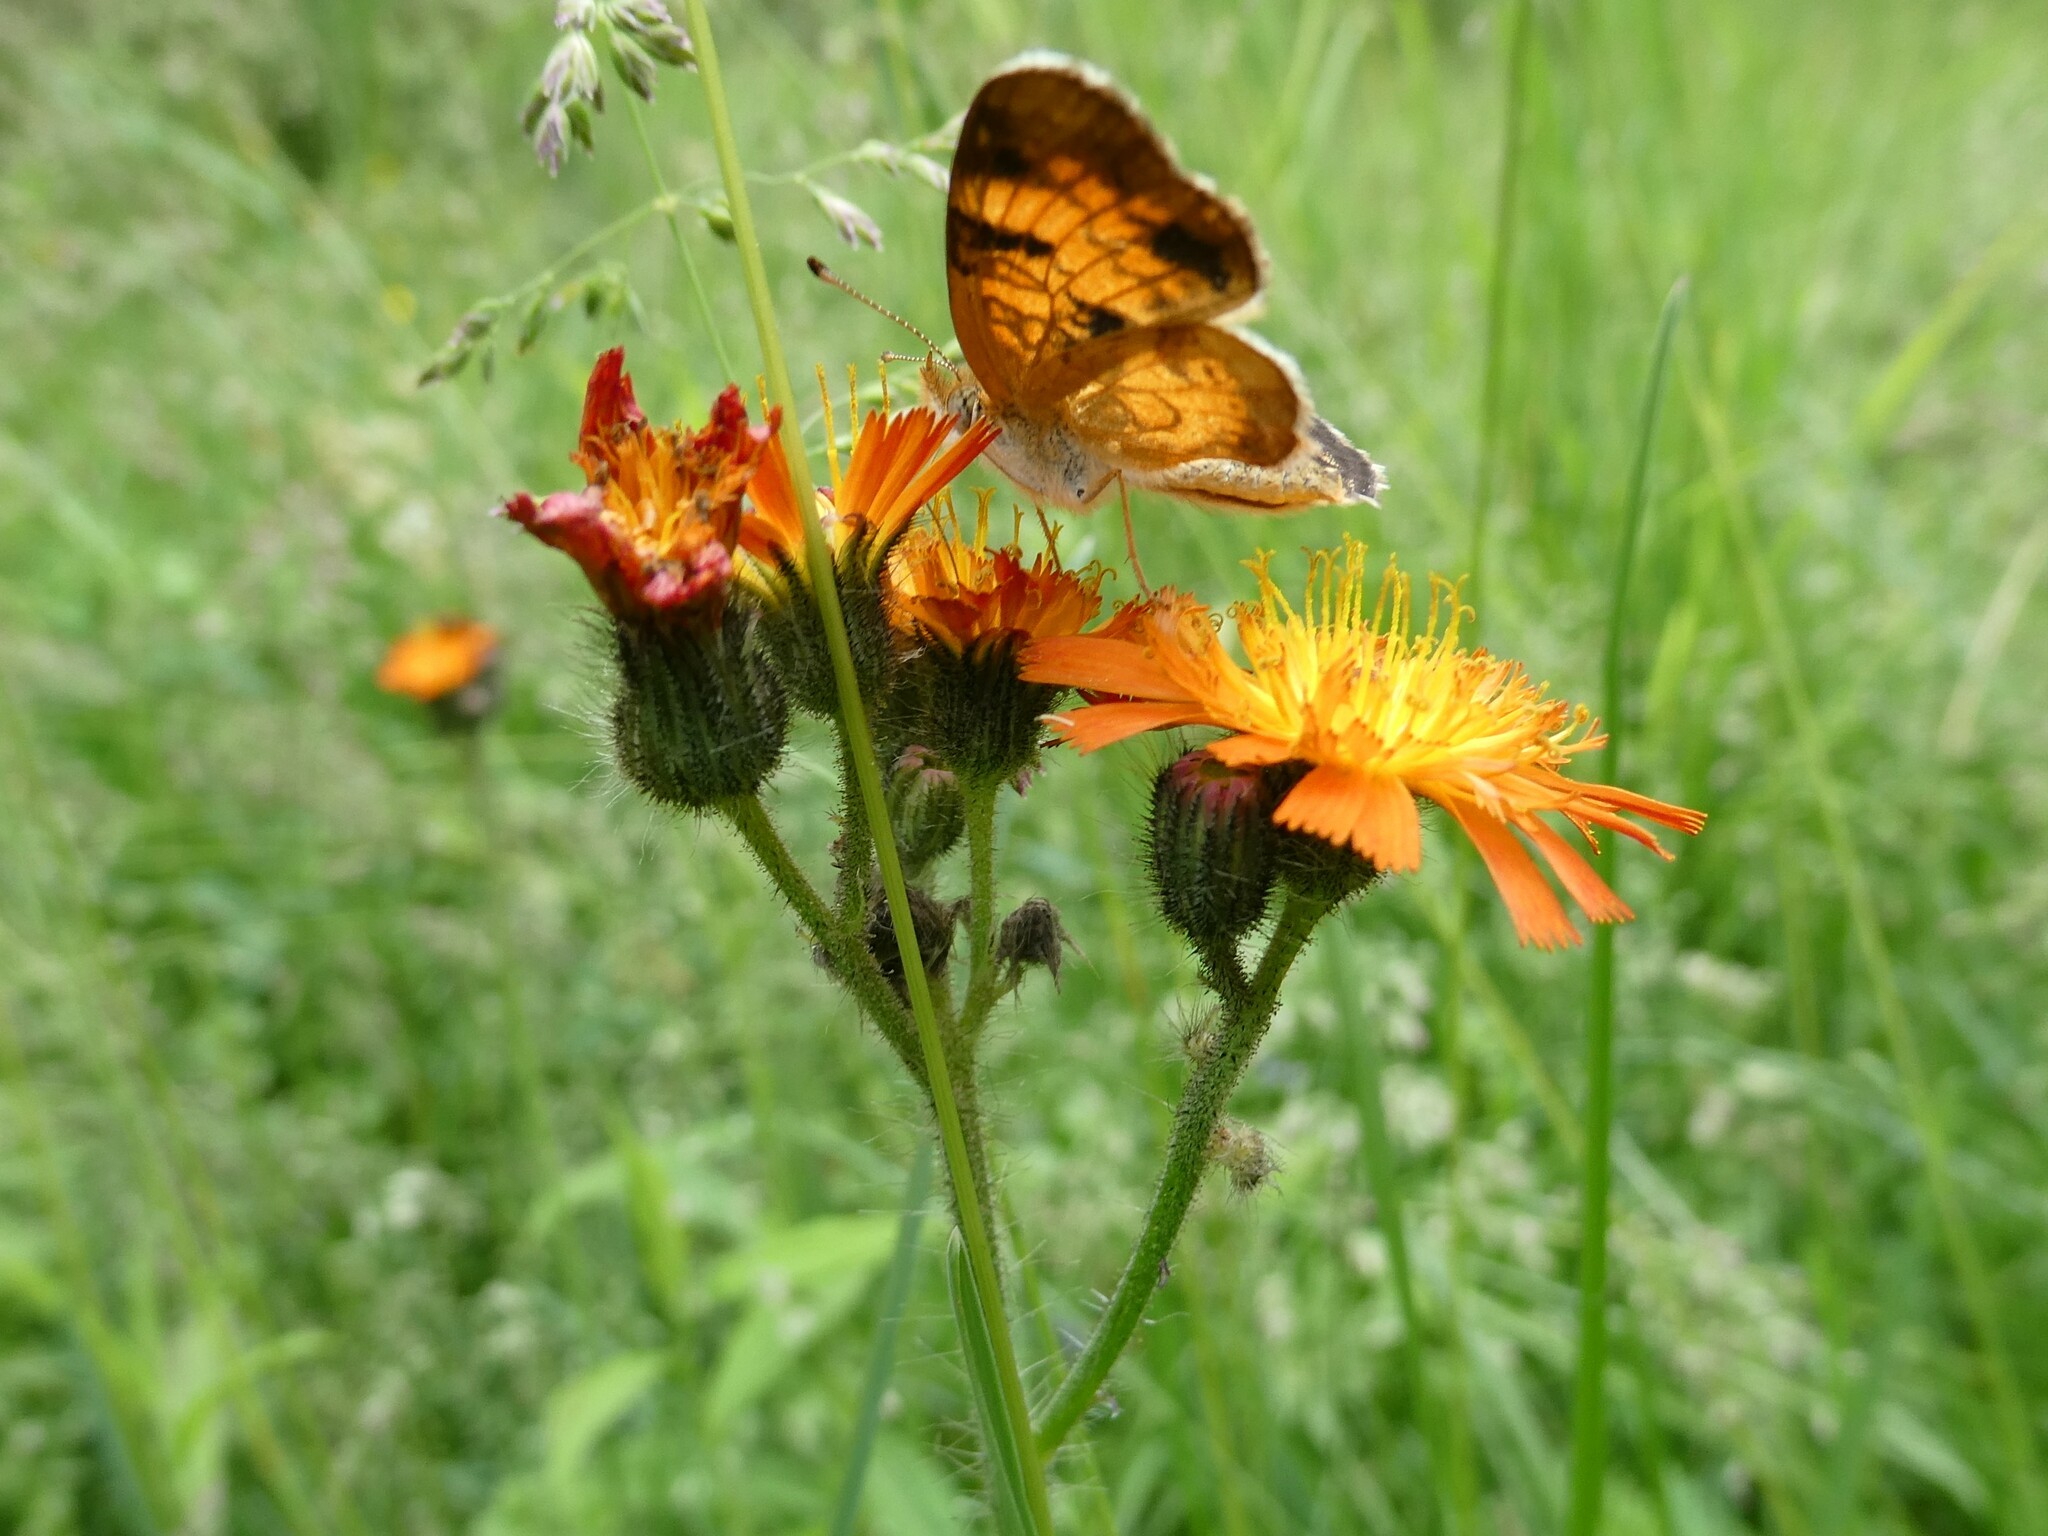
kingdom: Plantae
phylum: Tracheophyta
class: Magnoliopsida
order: Asterales
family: Asteraceae
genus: Pilosella
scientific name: Pilosella aurantiaca
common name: Fox-and-cubs
